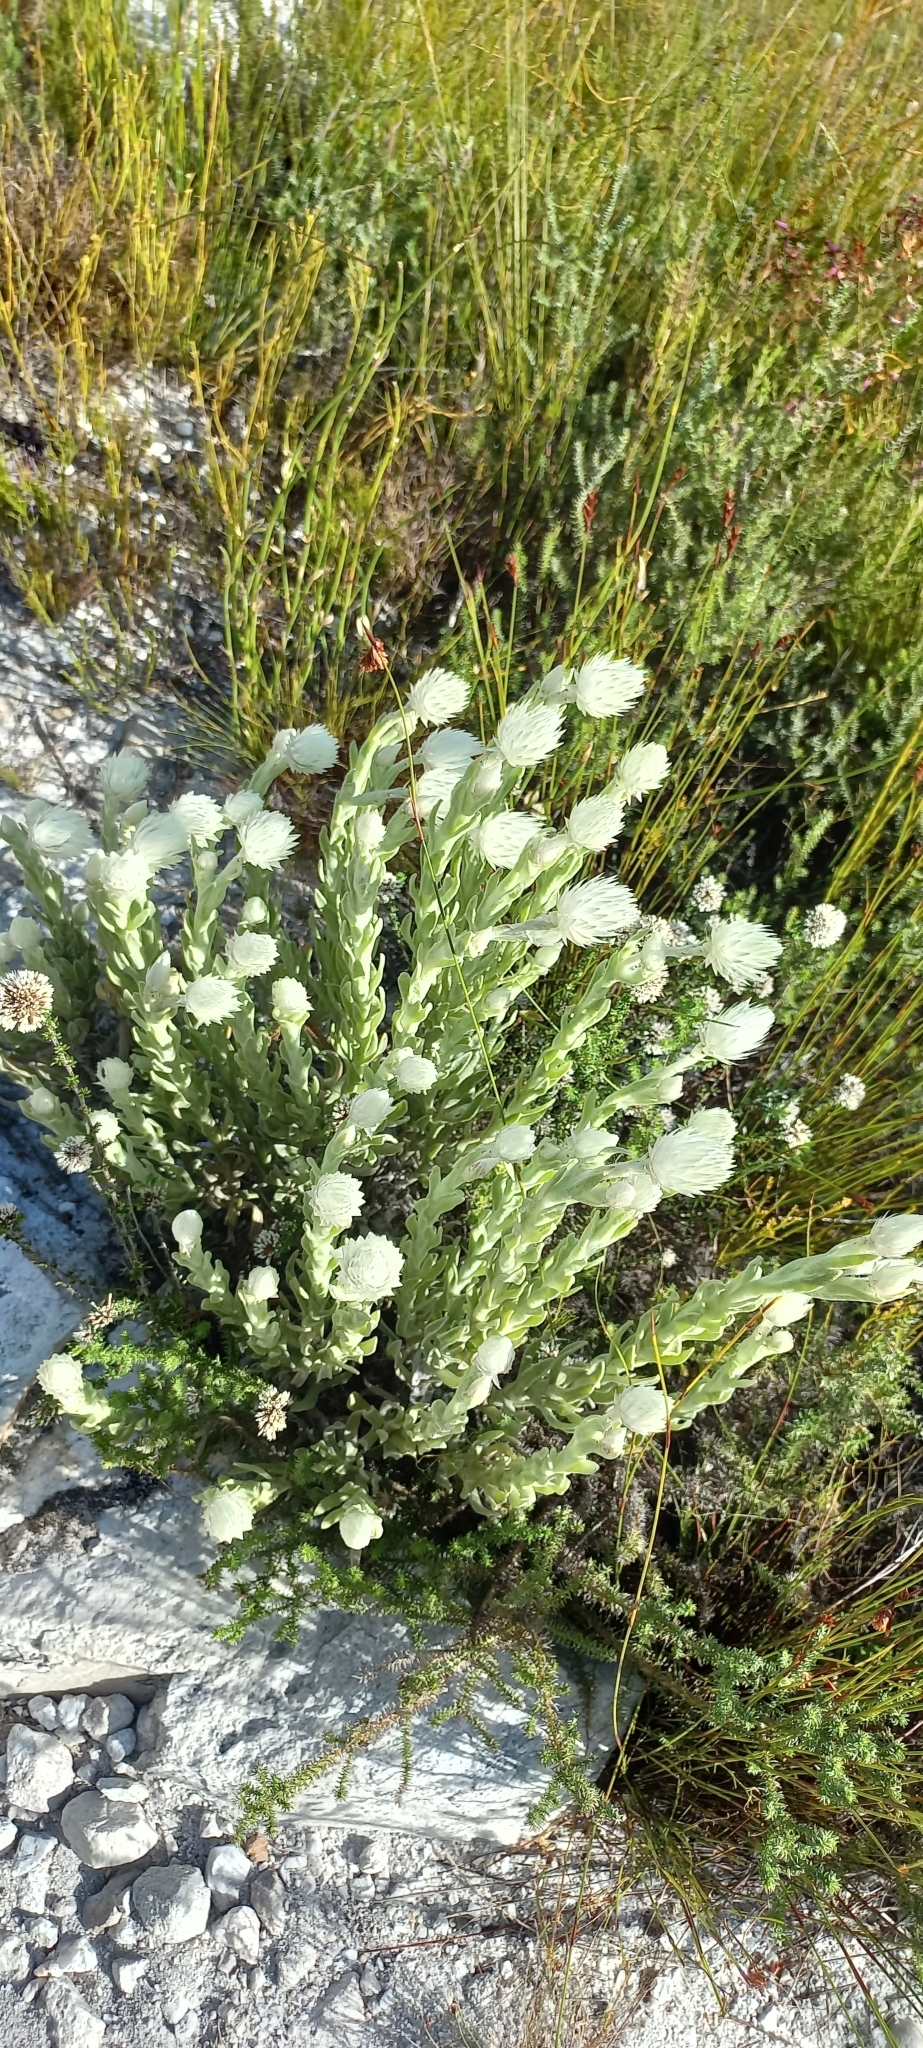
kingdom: Plantae
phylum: Tracheophyta
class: Magnoliopsida
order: Asterales
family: Asteraceae
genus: Syncarpha
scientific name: Syncarpha vestita
